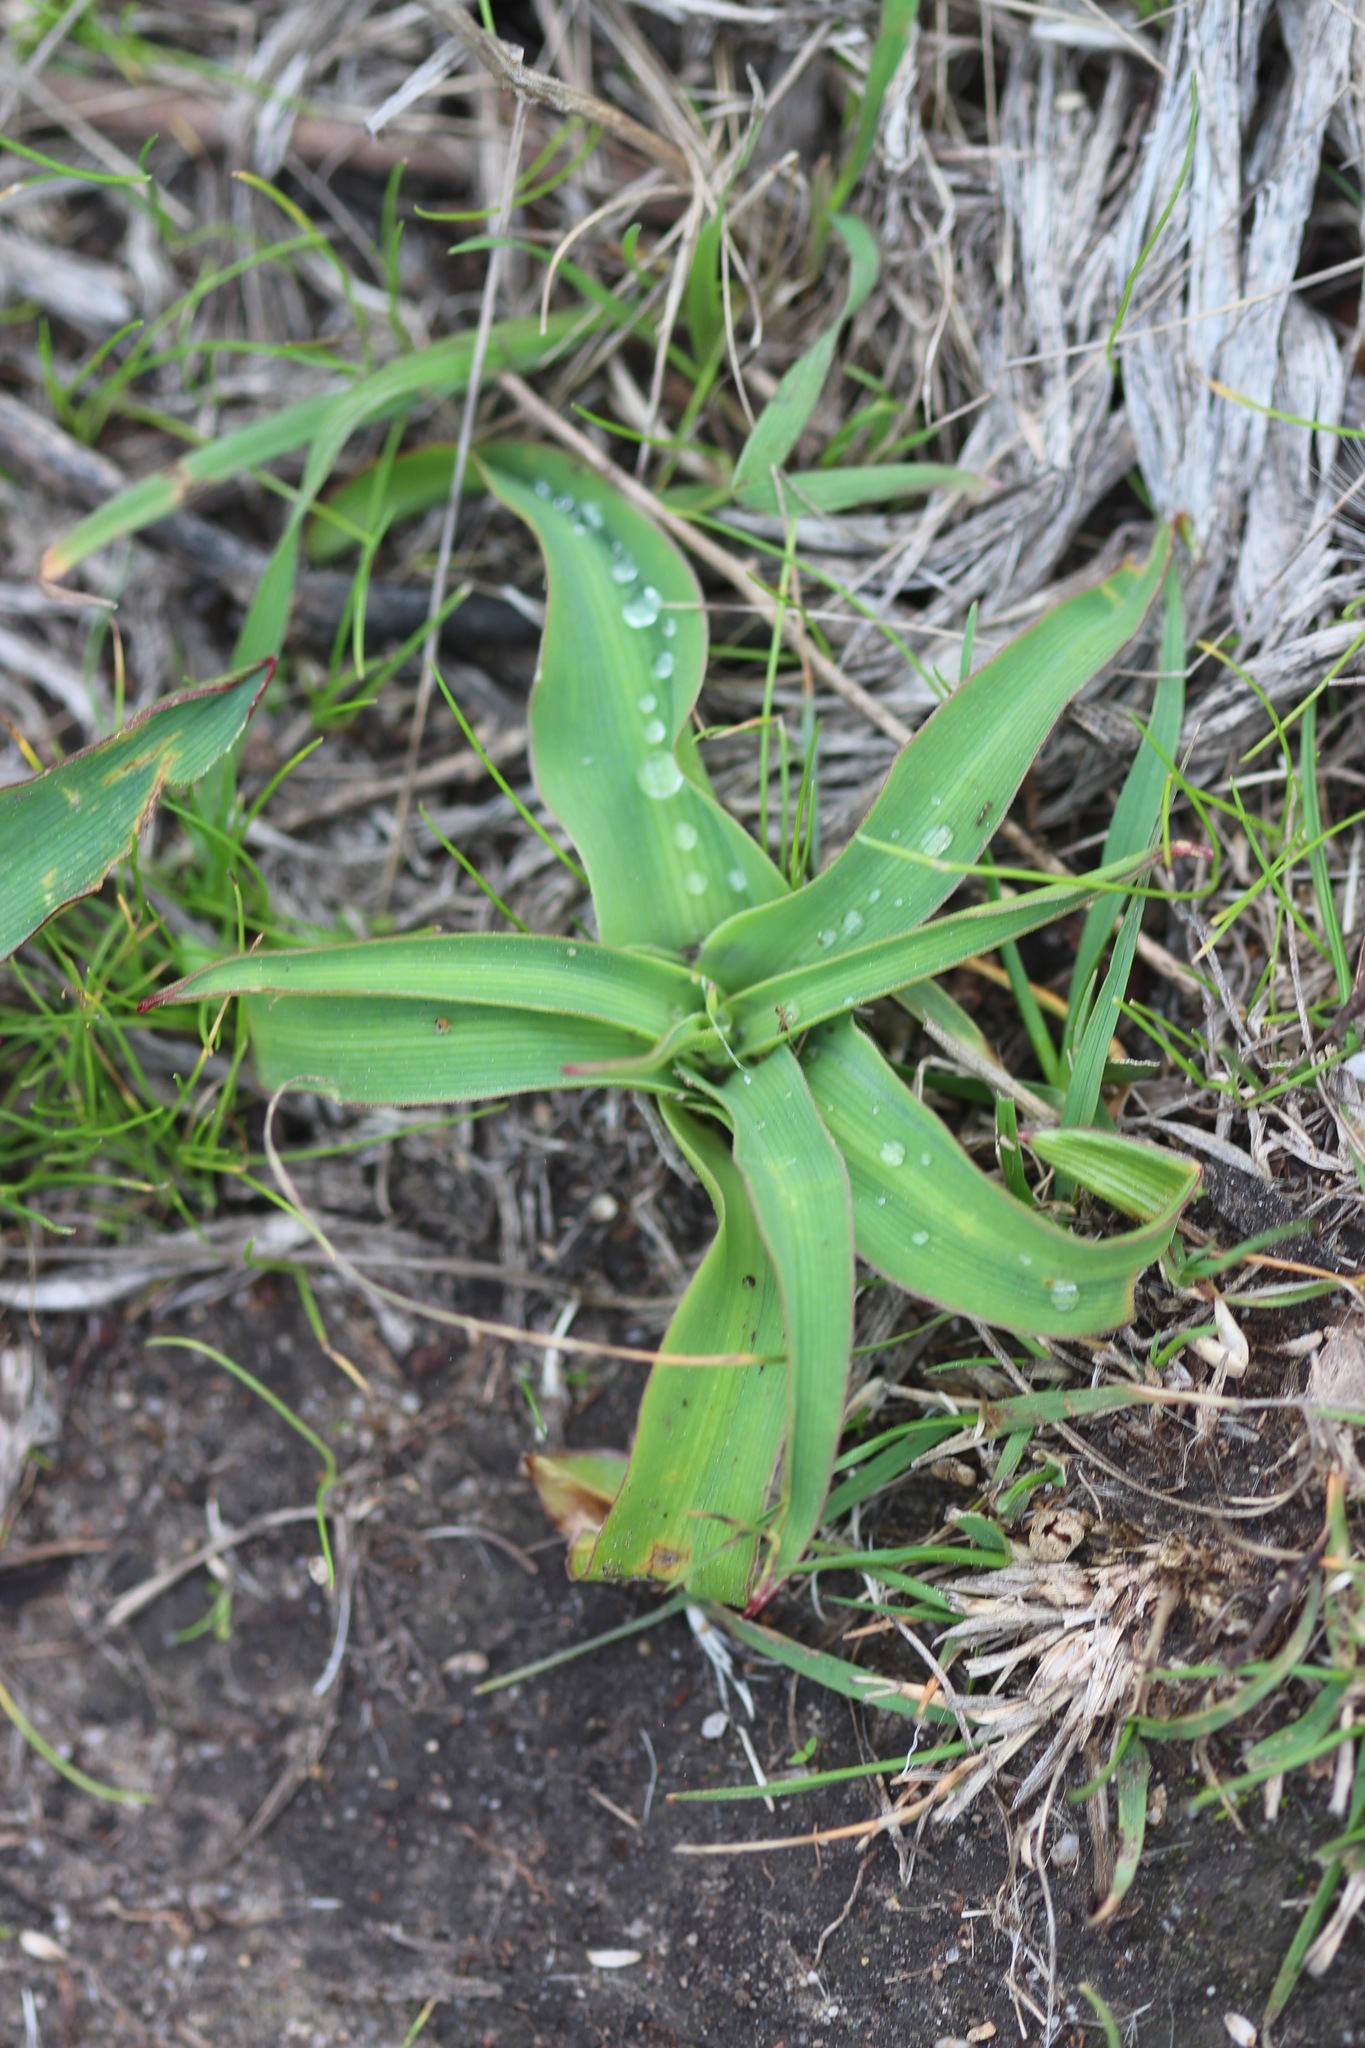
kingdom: Plantae
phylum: Tracheophyta
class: Liliopsida
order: Asparagales
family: Asparagaceae
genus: Chlorogalum
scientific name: Chlorogalum pomeridianum
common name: Amole
